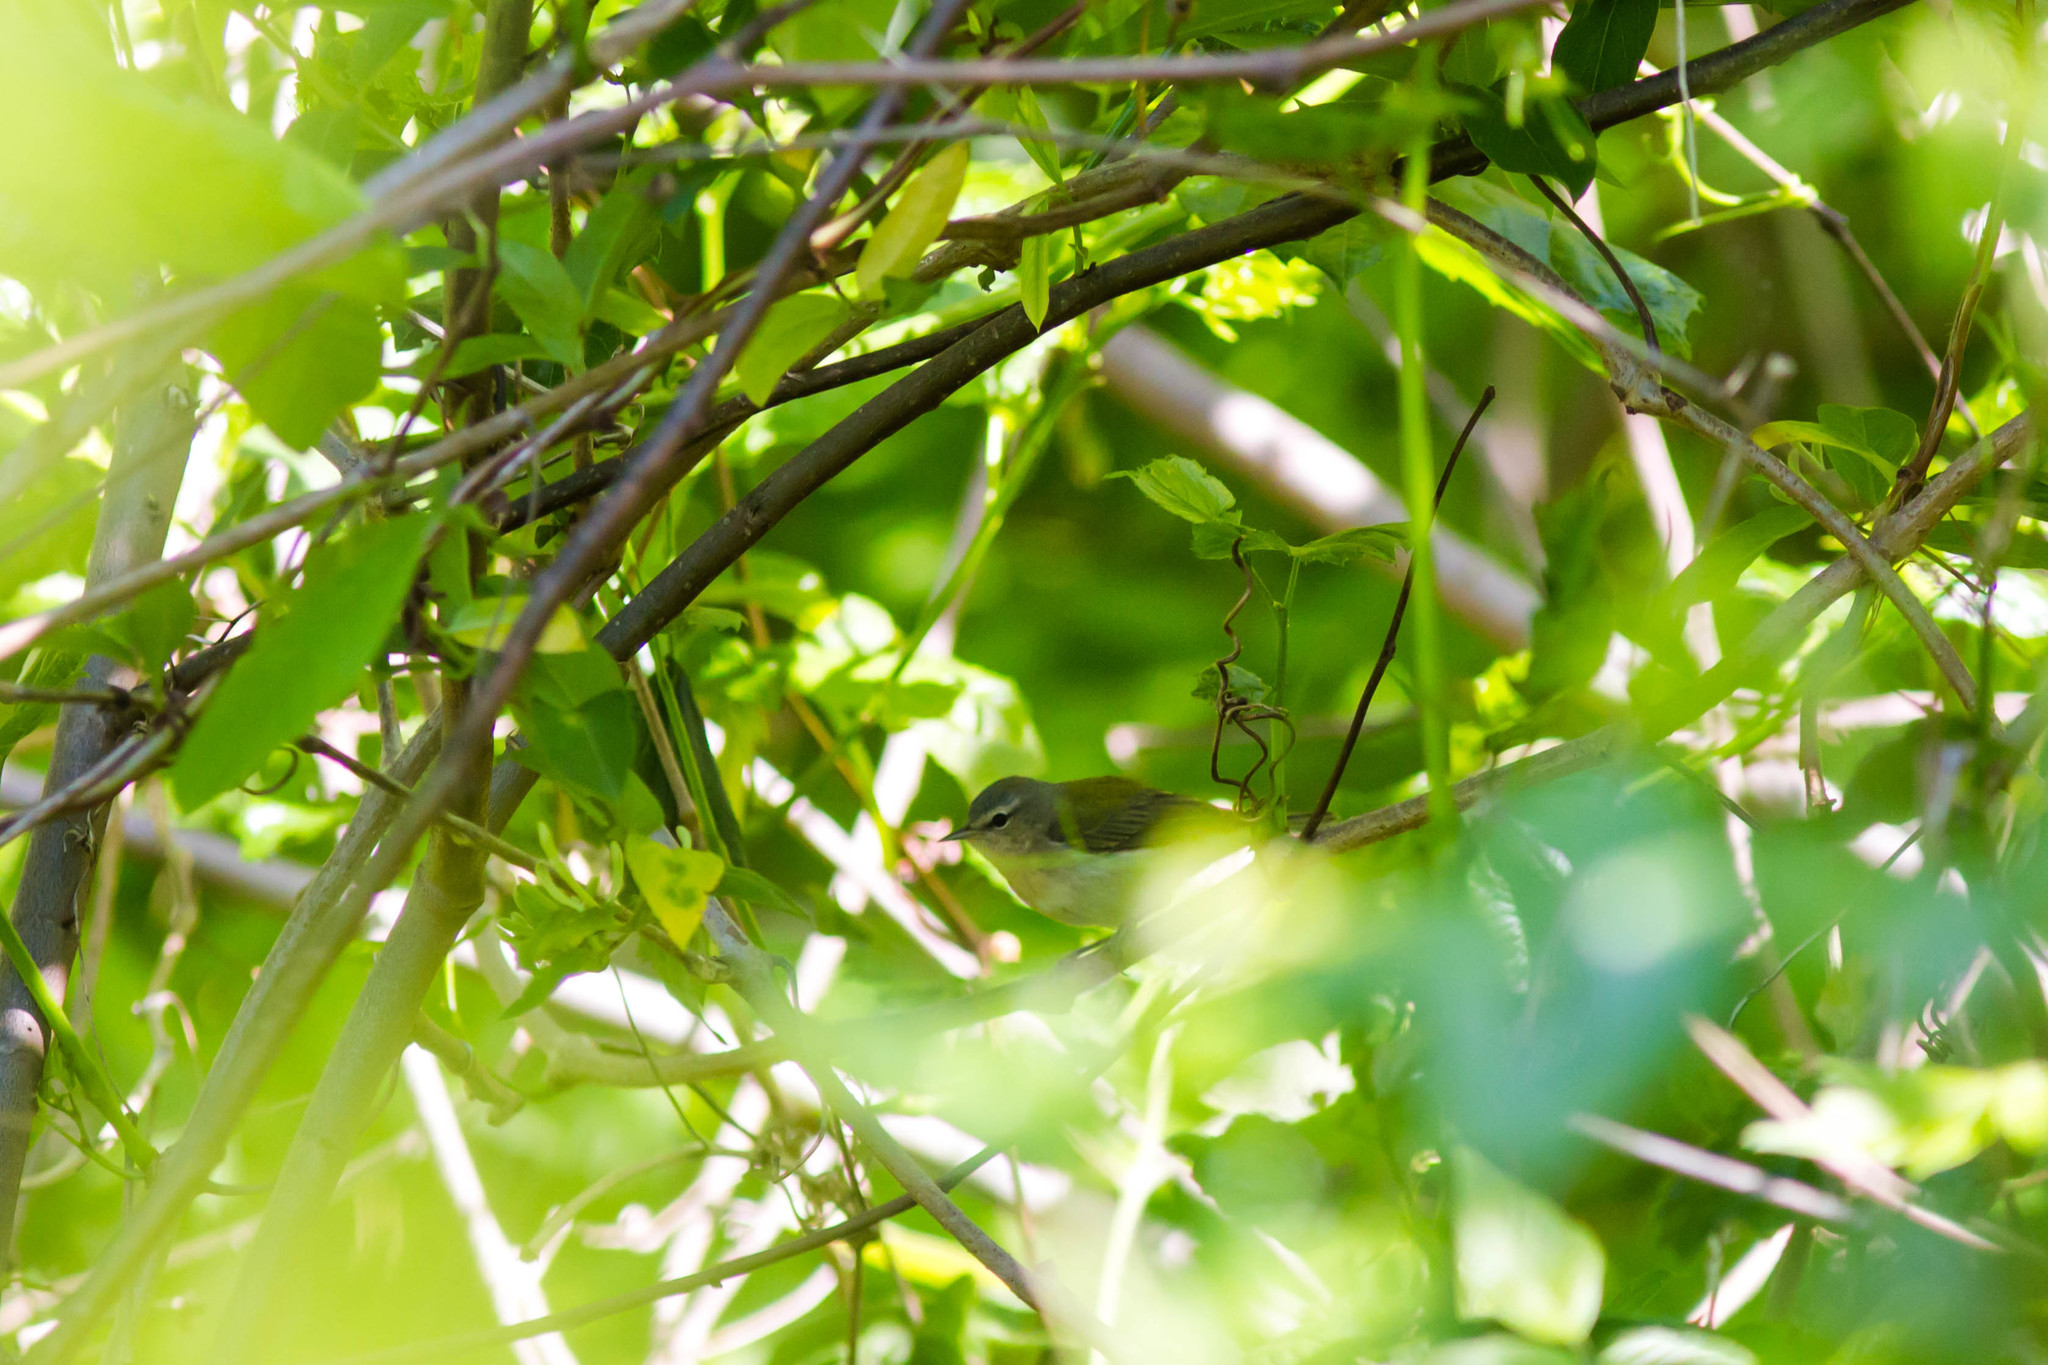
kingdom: Animalia
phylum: Chordata
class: Aves
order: Passeriformes
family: Parulidae
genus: Leiothlypis
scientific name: Leiothlypis peregrina
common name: Tennessee warbler
